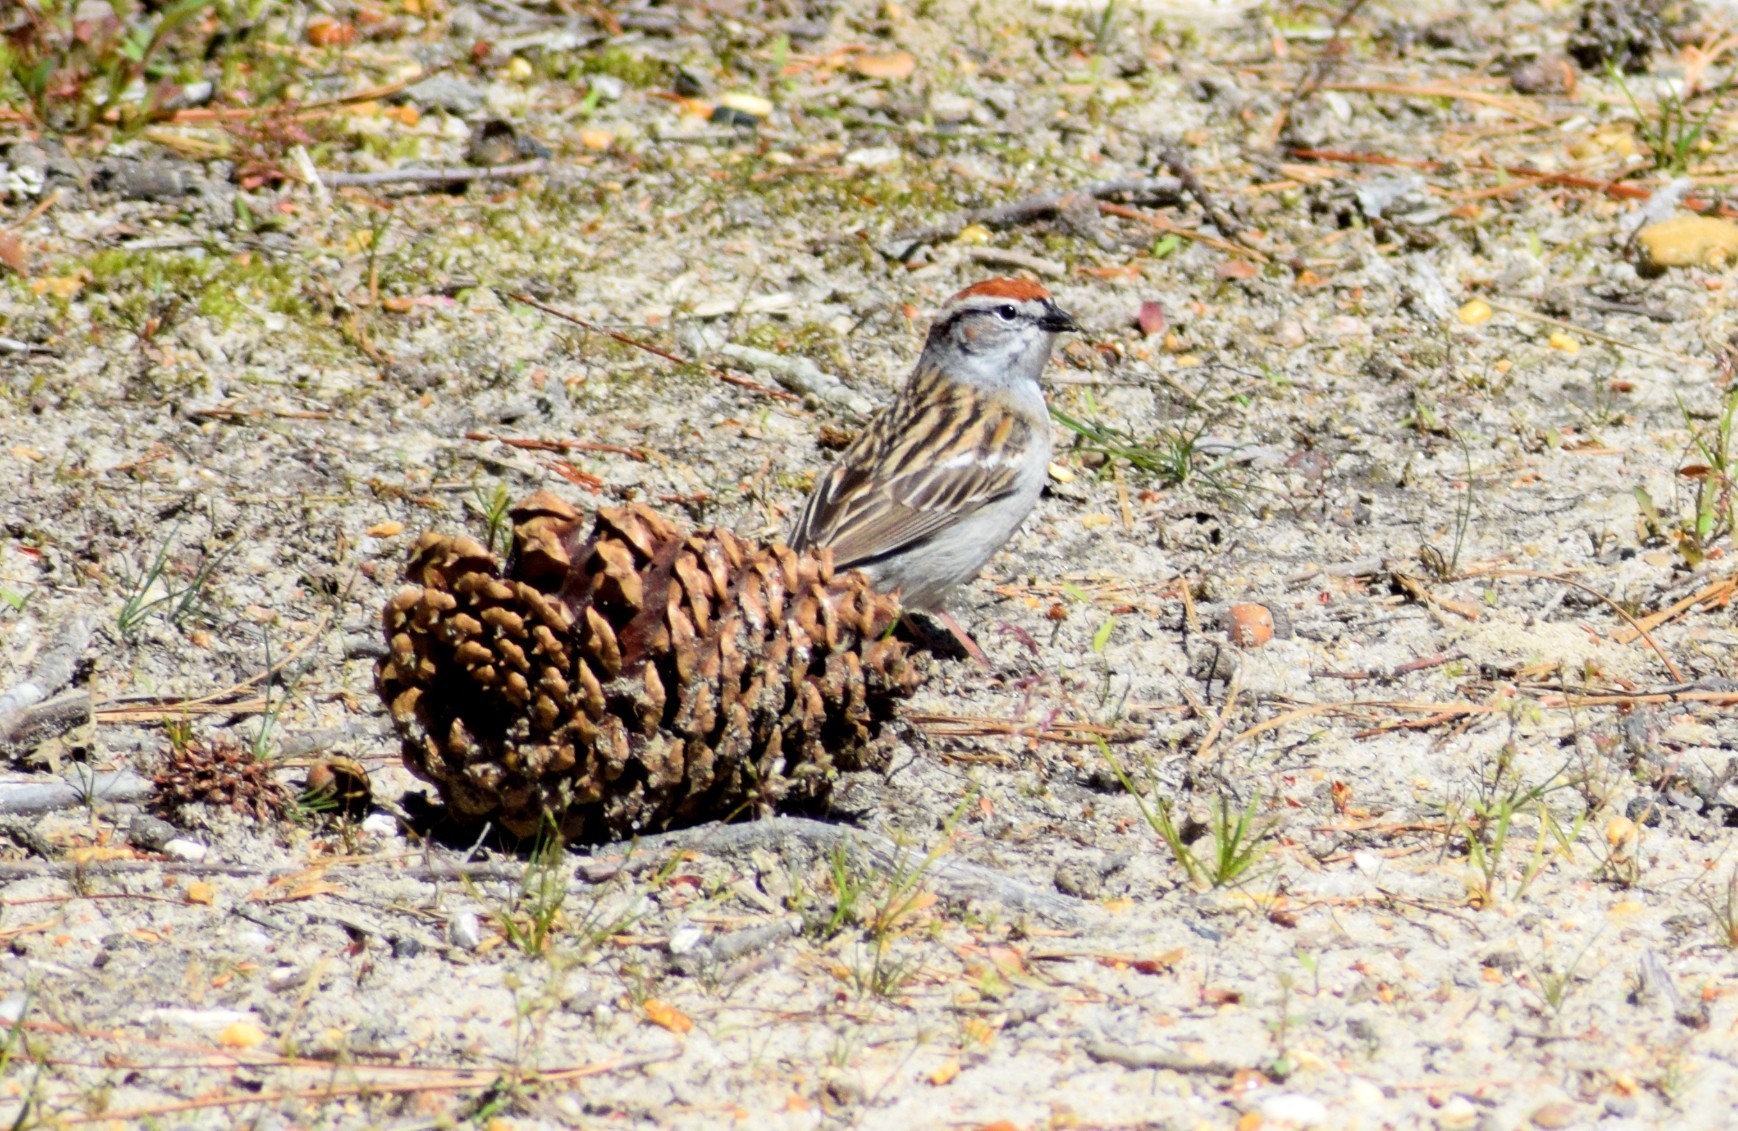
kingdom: Animalia
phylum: Chordata
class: Aves
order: Passeriformes
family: Passerellidae
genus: Spizella
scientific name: Spizella passerina
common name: Chipping sparrow
